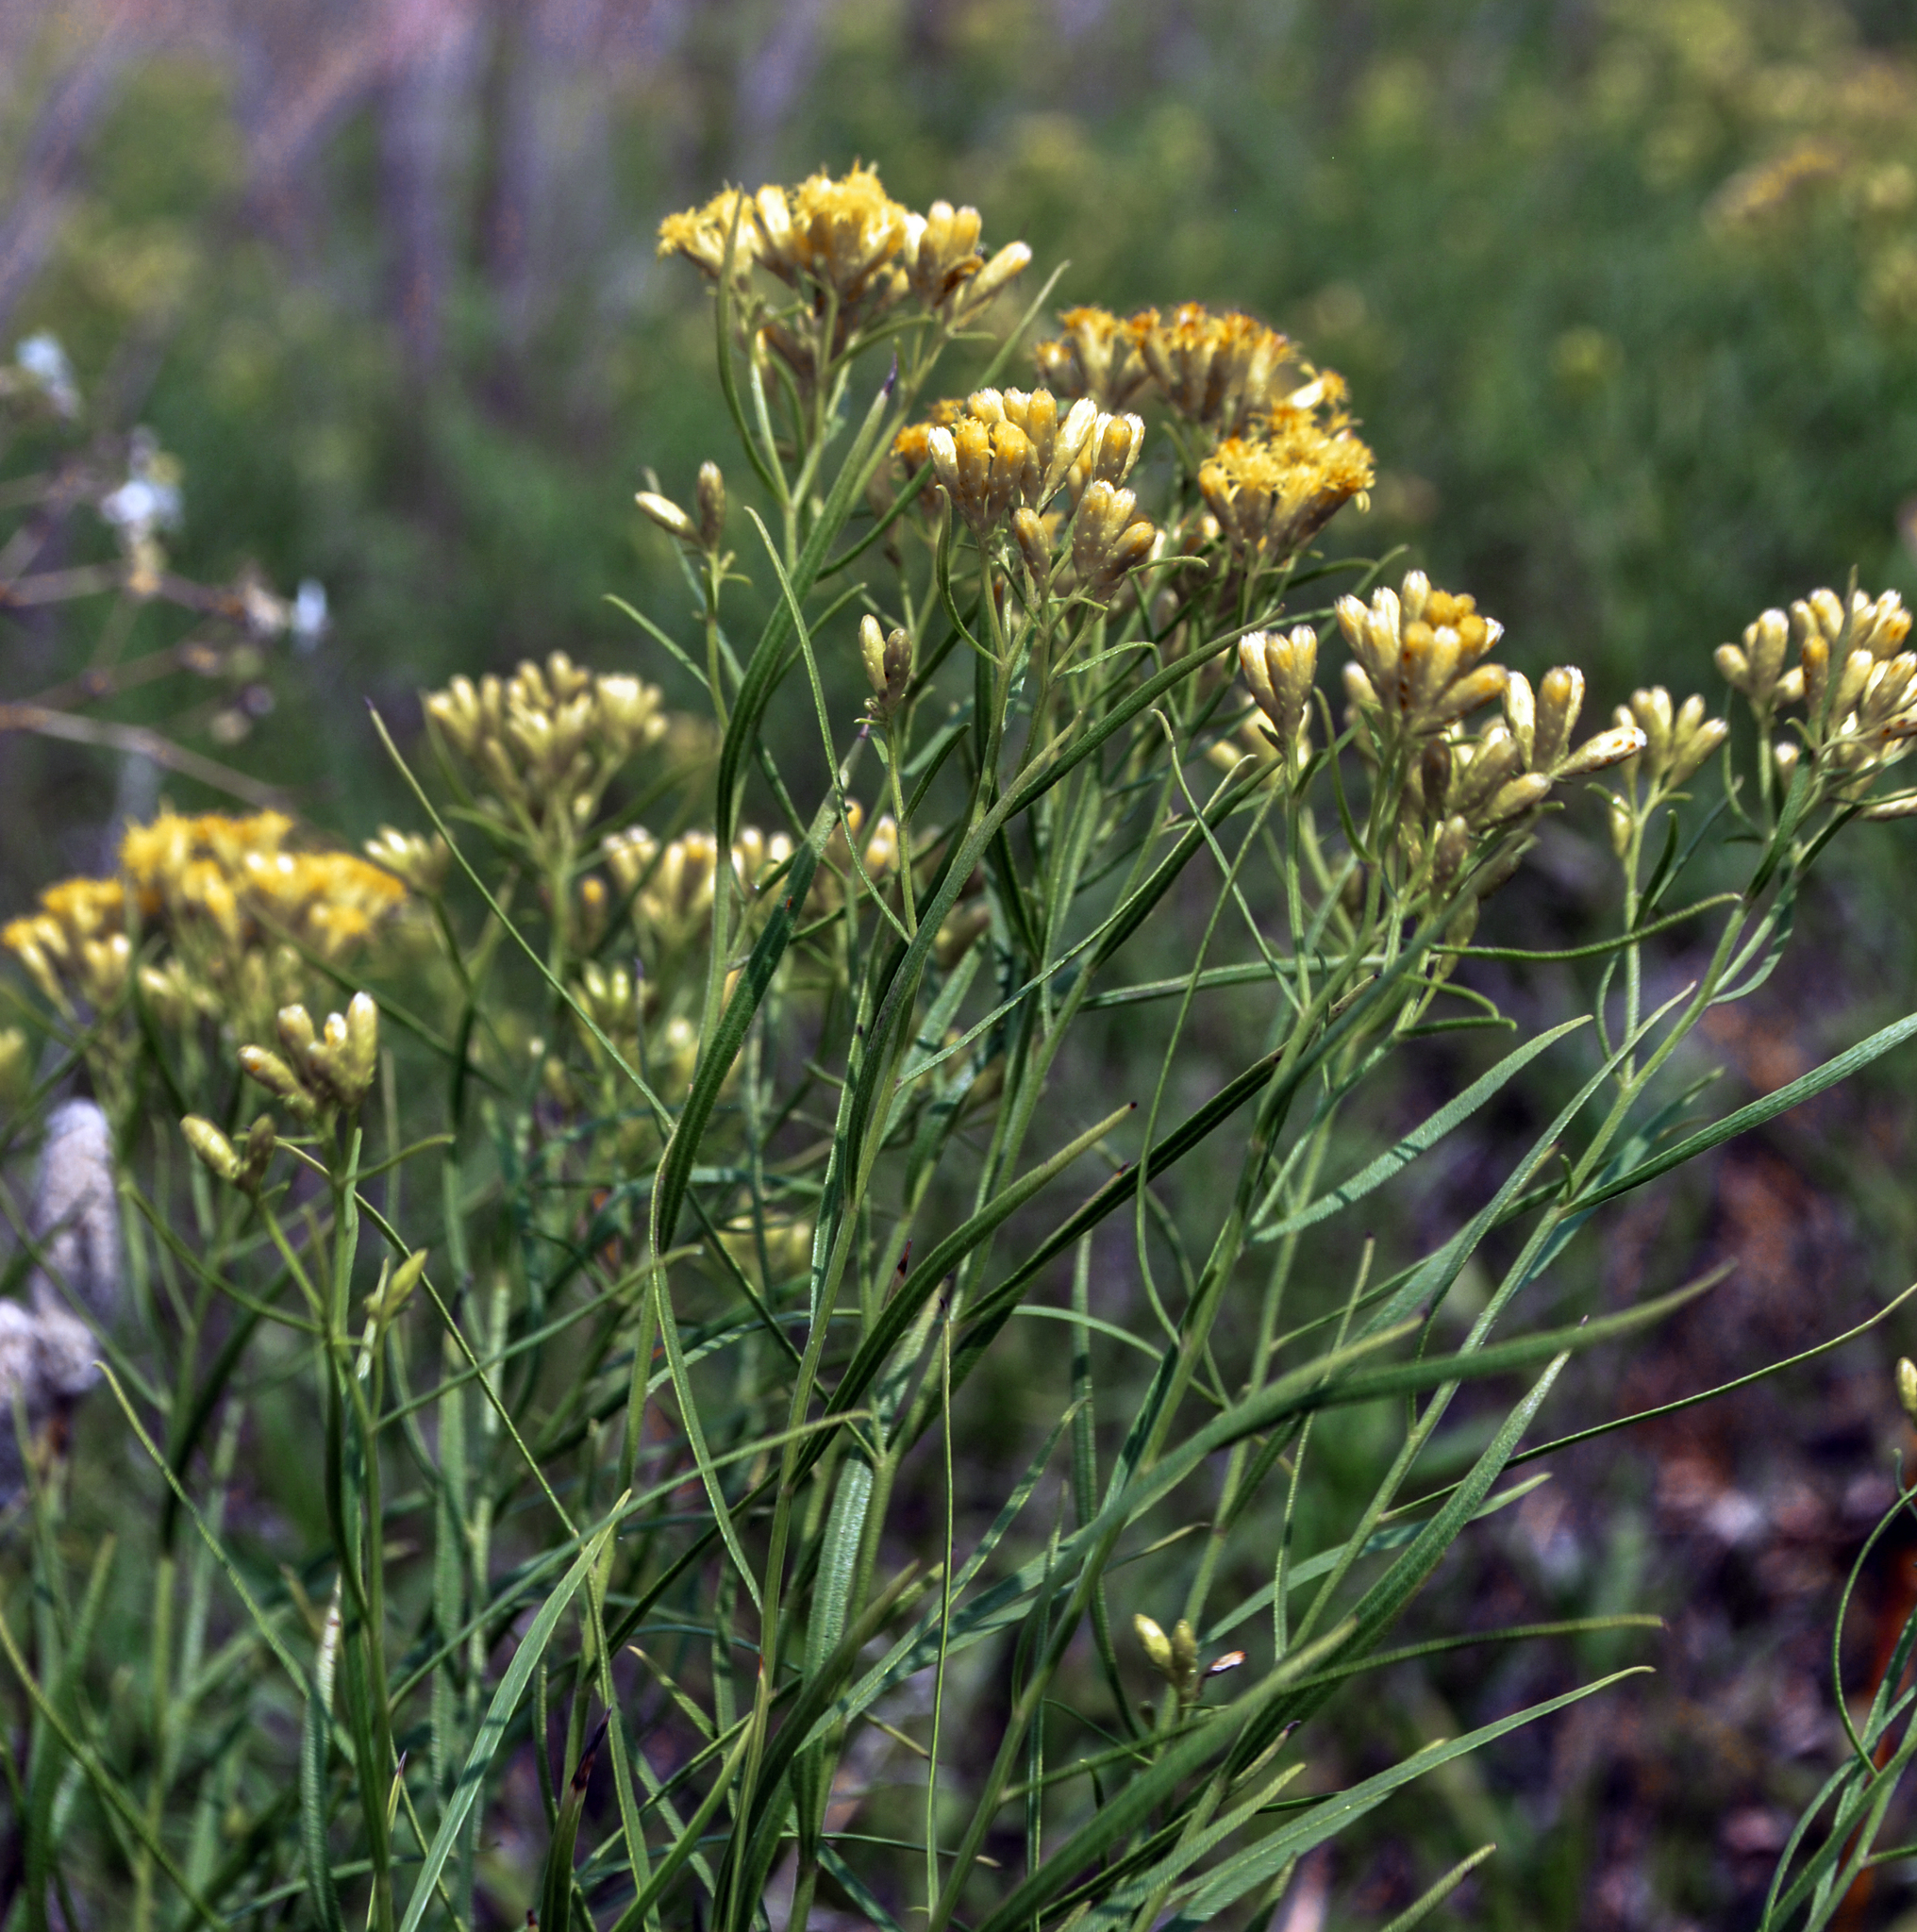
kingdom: Plantae
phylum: Tracheophyta
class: Magnoliopsida
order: Asterales
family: Asteraceae
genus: Euthamia
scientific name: Euthamia graminifolia
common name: Common goldentop
